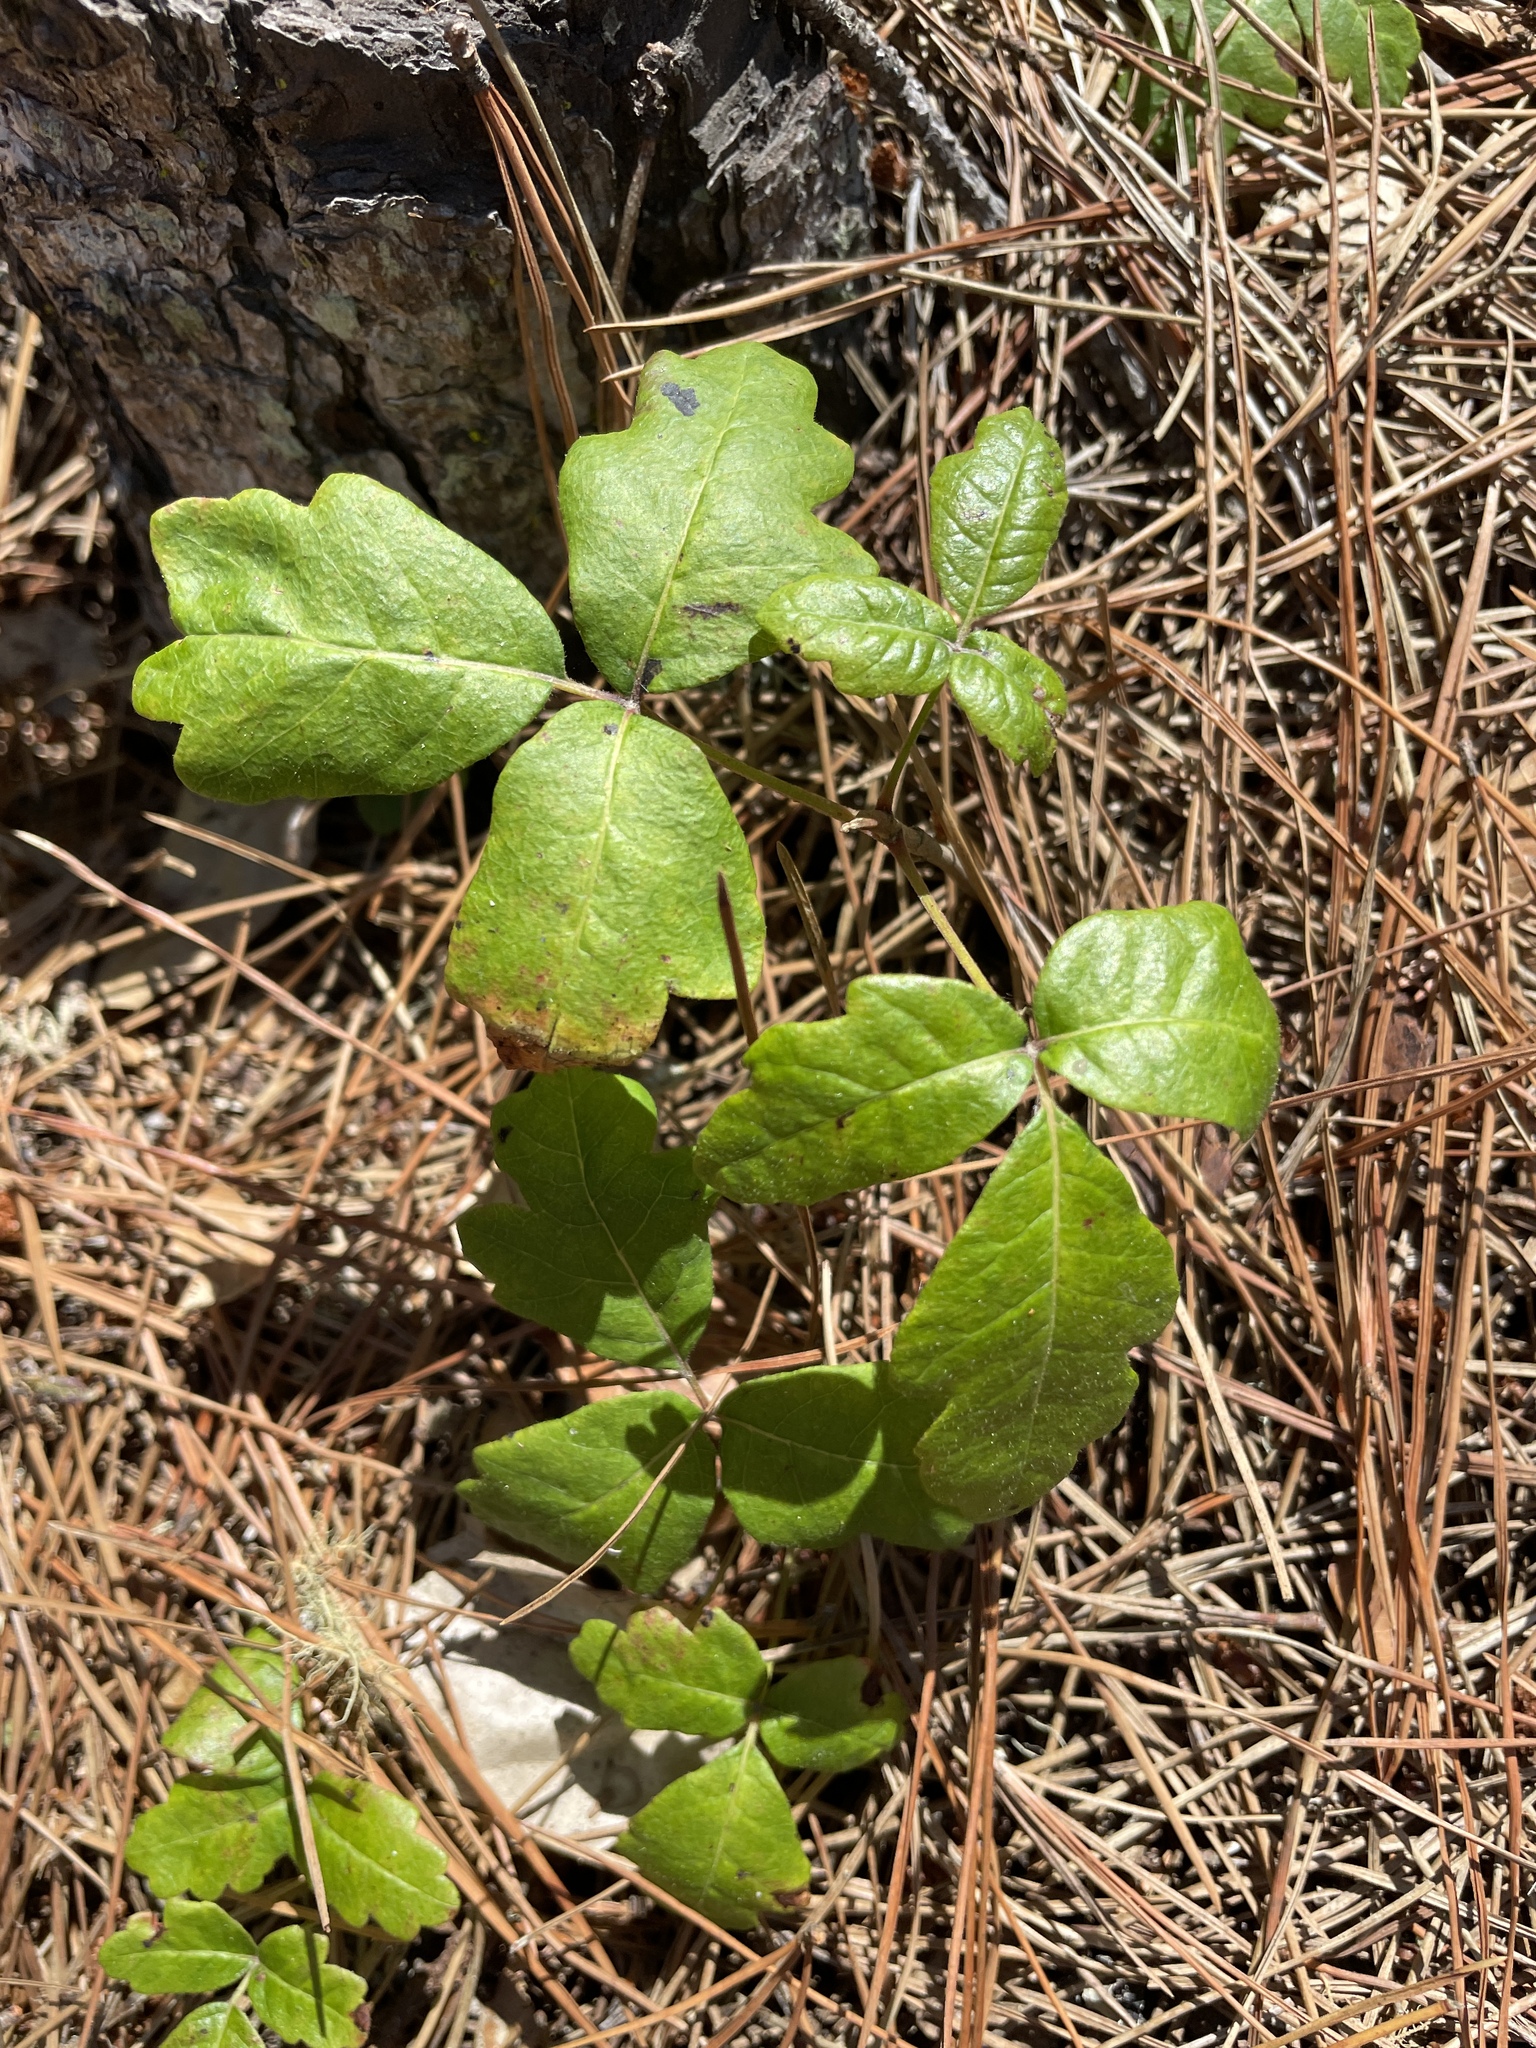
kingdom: Plantae
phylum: Tracheophyta
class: Magnoliopsida
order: Sapindales
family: Anacardiaceae
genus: Toxicodendron
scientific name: Toxicodendron diversilobum
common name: Pacific poison-oak
